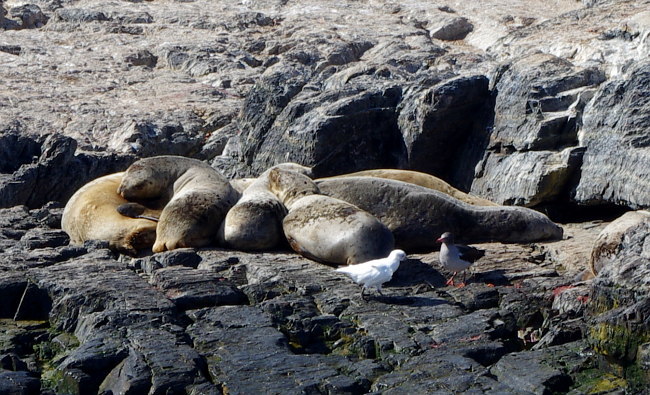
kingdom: Animalia
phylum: Chordata
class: Aves
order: Charadriiformes
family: Chionidae
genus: Chionis
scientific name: Chionis albus
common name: Snowy sheathbill
